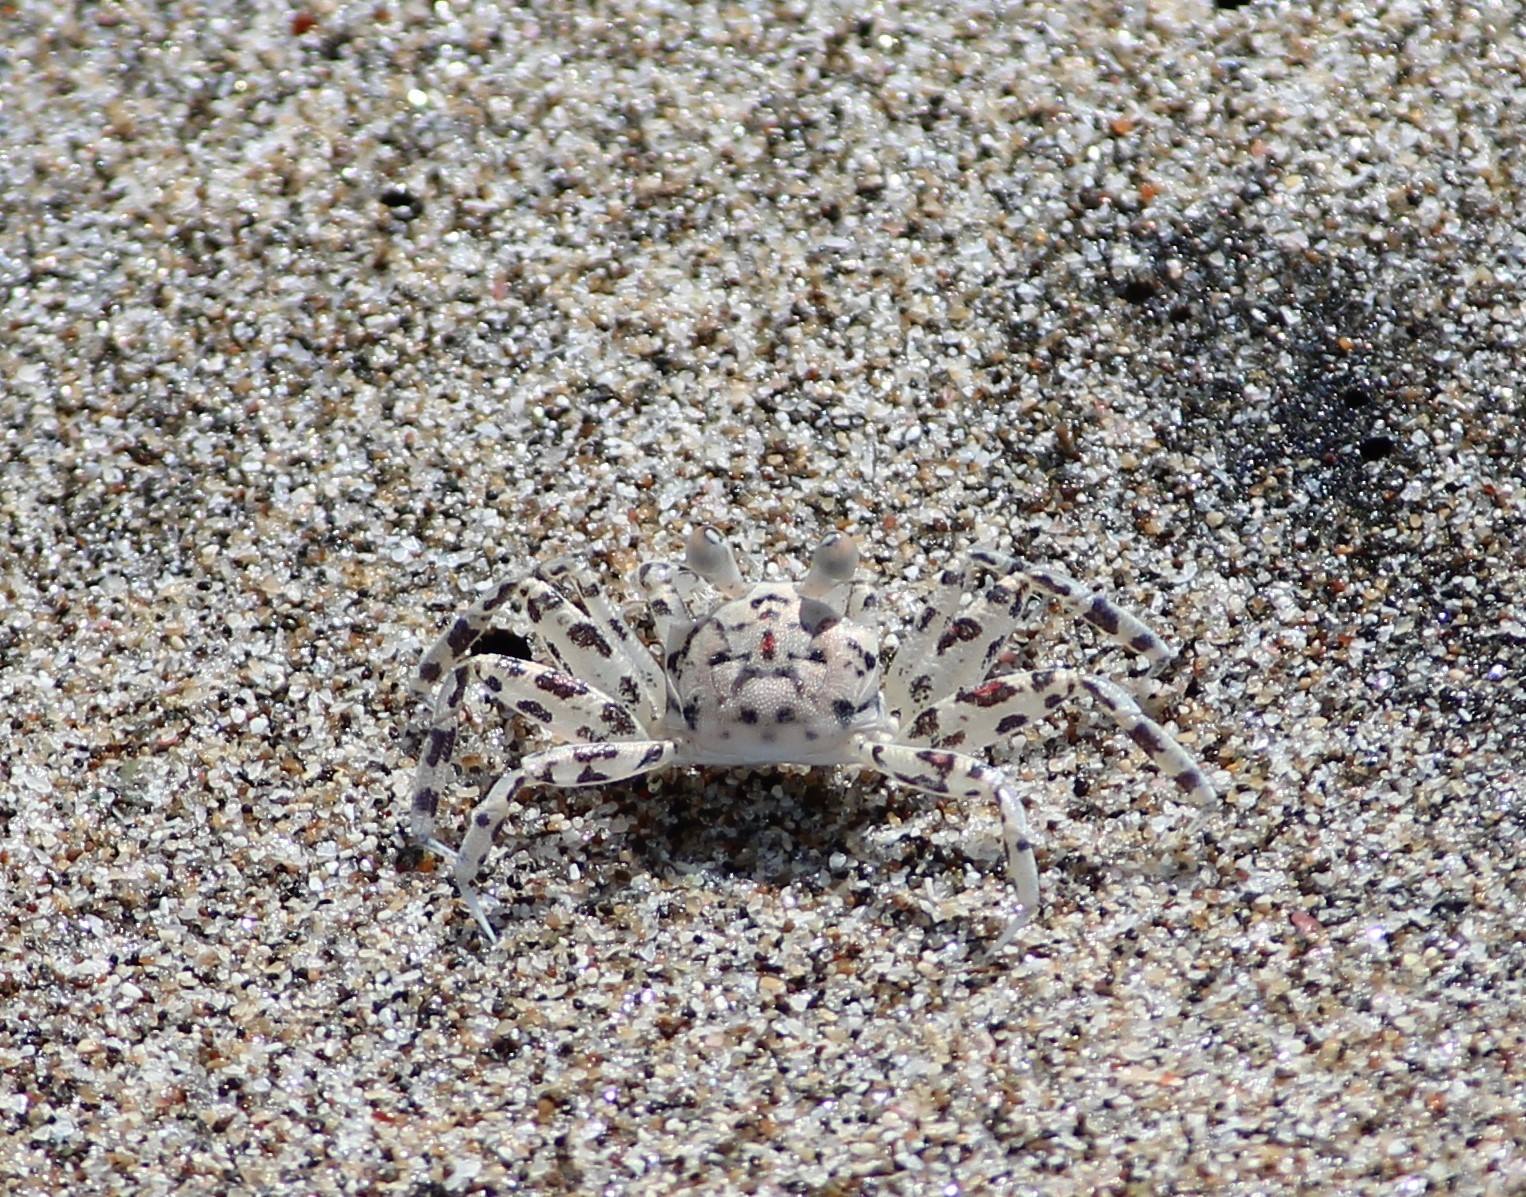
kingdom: Animalia
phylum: Arthropoda
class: Malacostraca
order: Decapoda
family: Ocypodidae
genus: Ocypode
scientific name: Ocypode occidentalis
